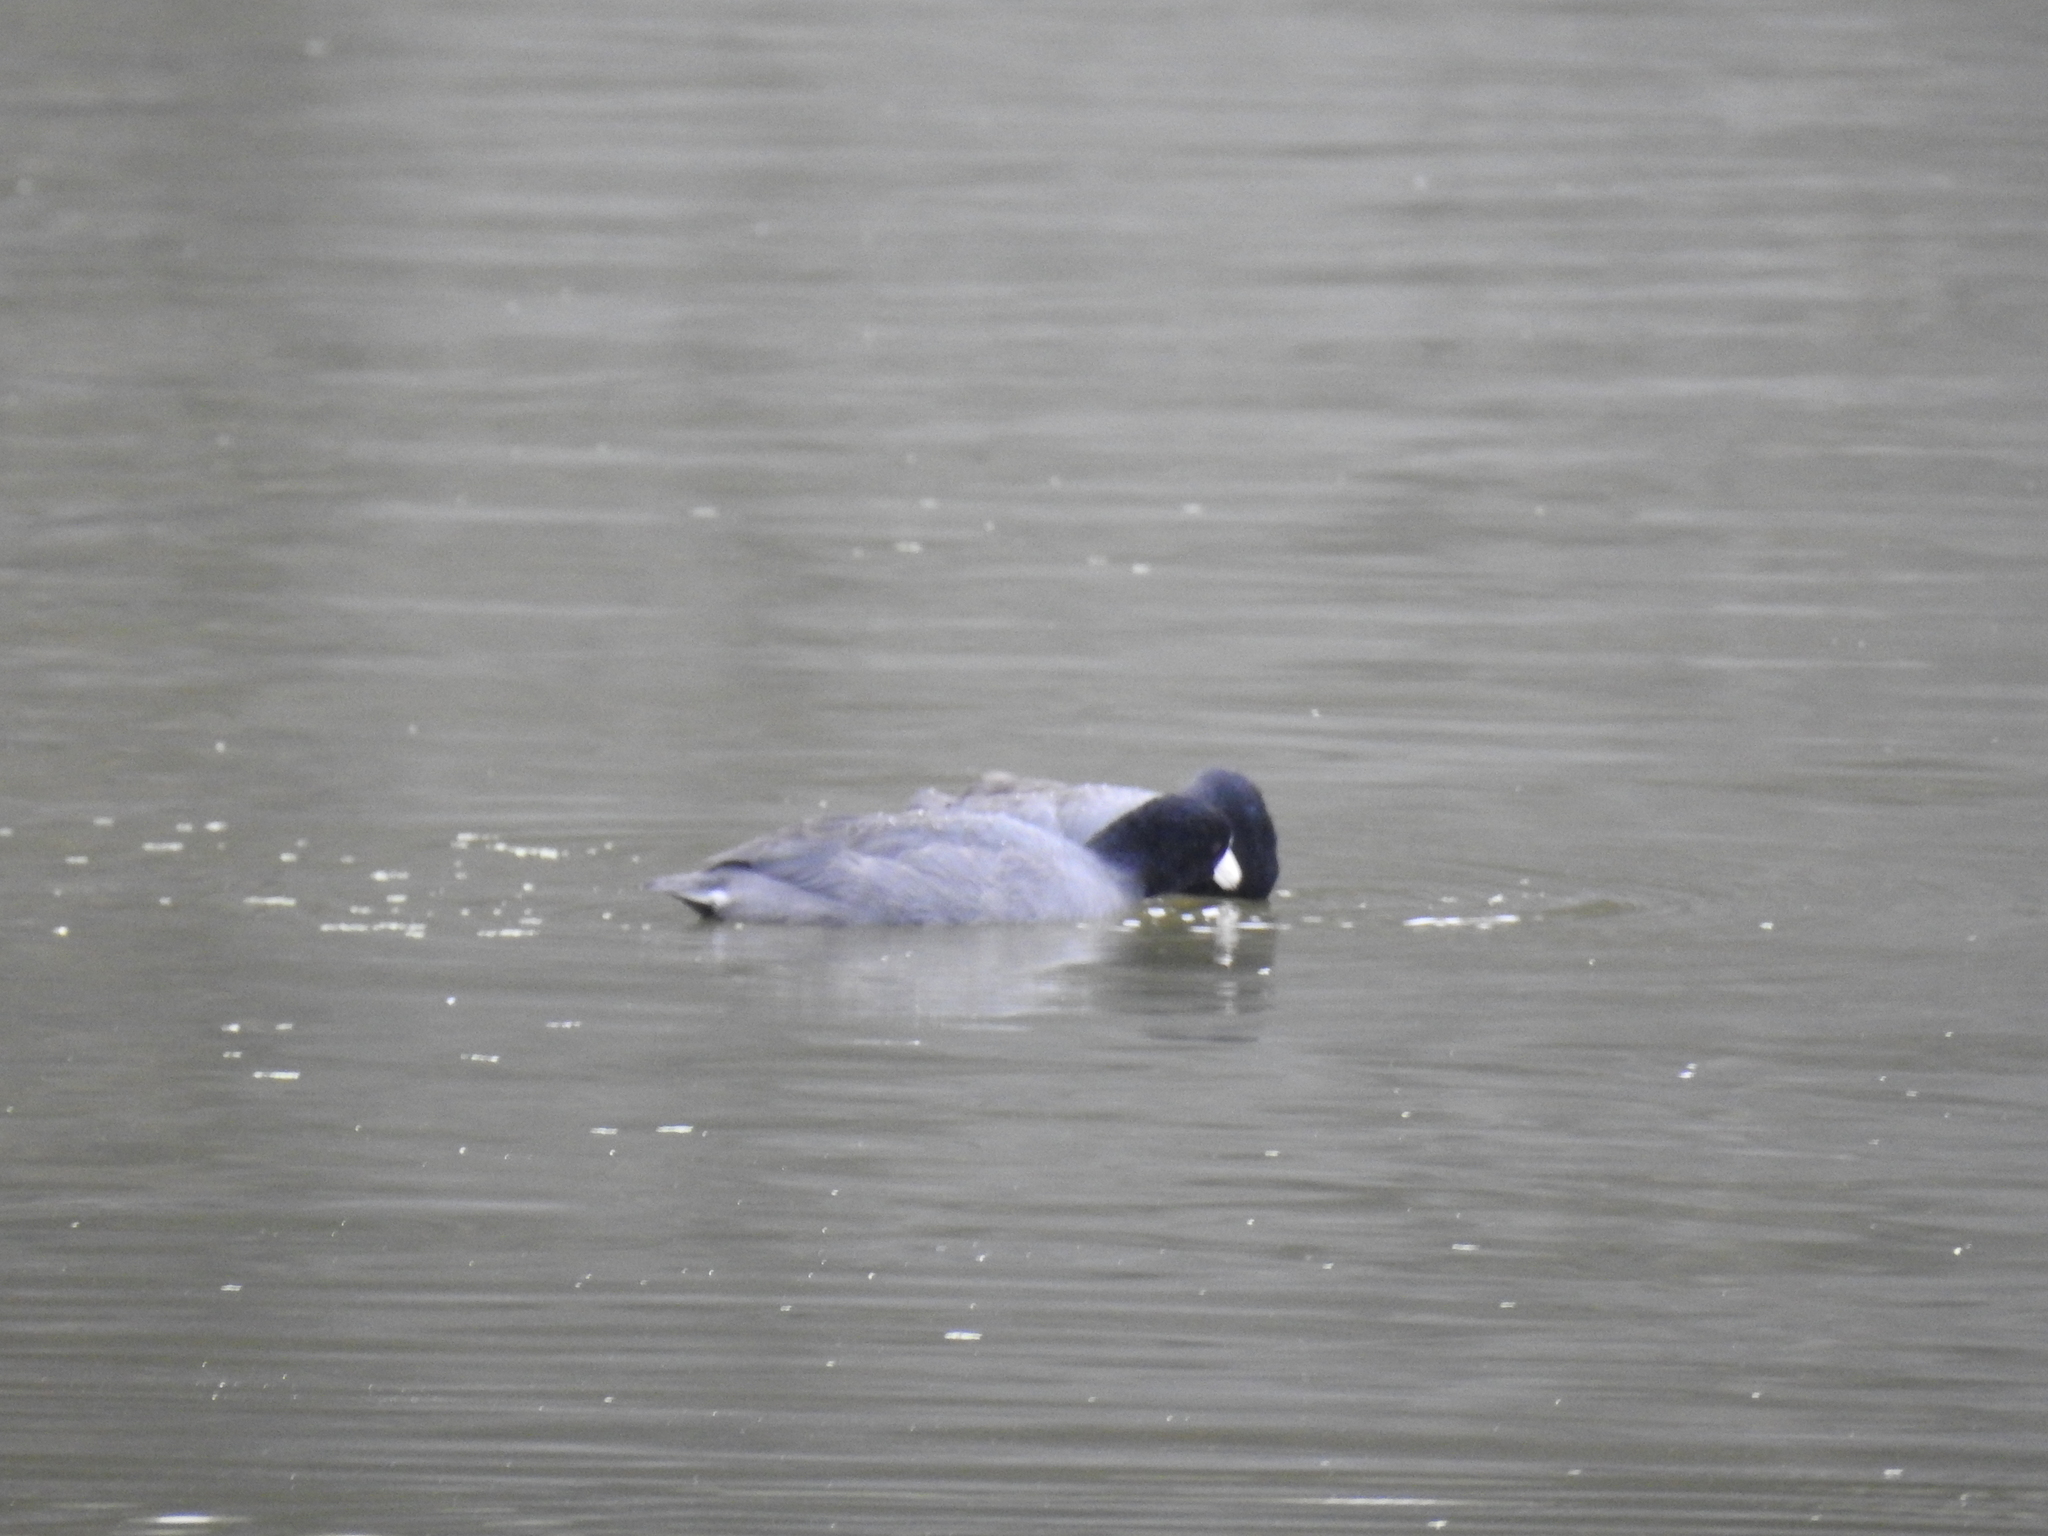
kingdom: Animalia
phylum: Chordata
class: Aves
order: Gruiformes
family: Rallidae
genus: Fulica
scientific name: Fulica americana
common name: American coot
